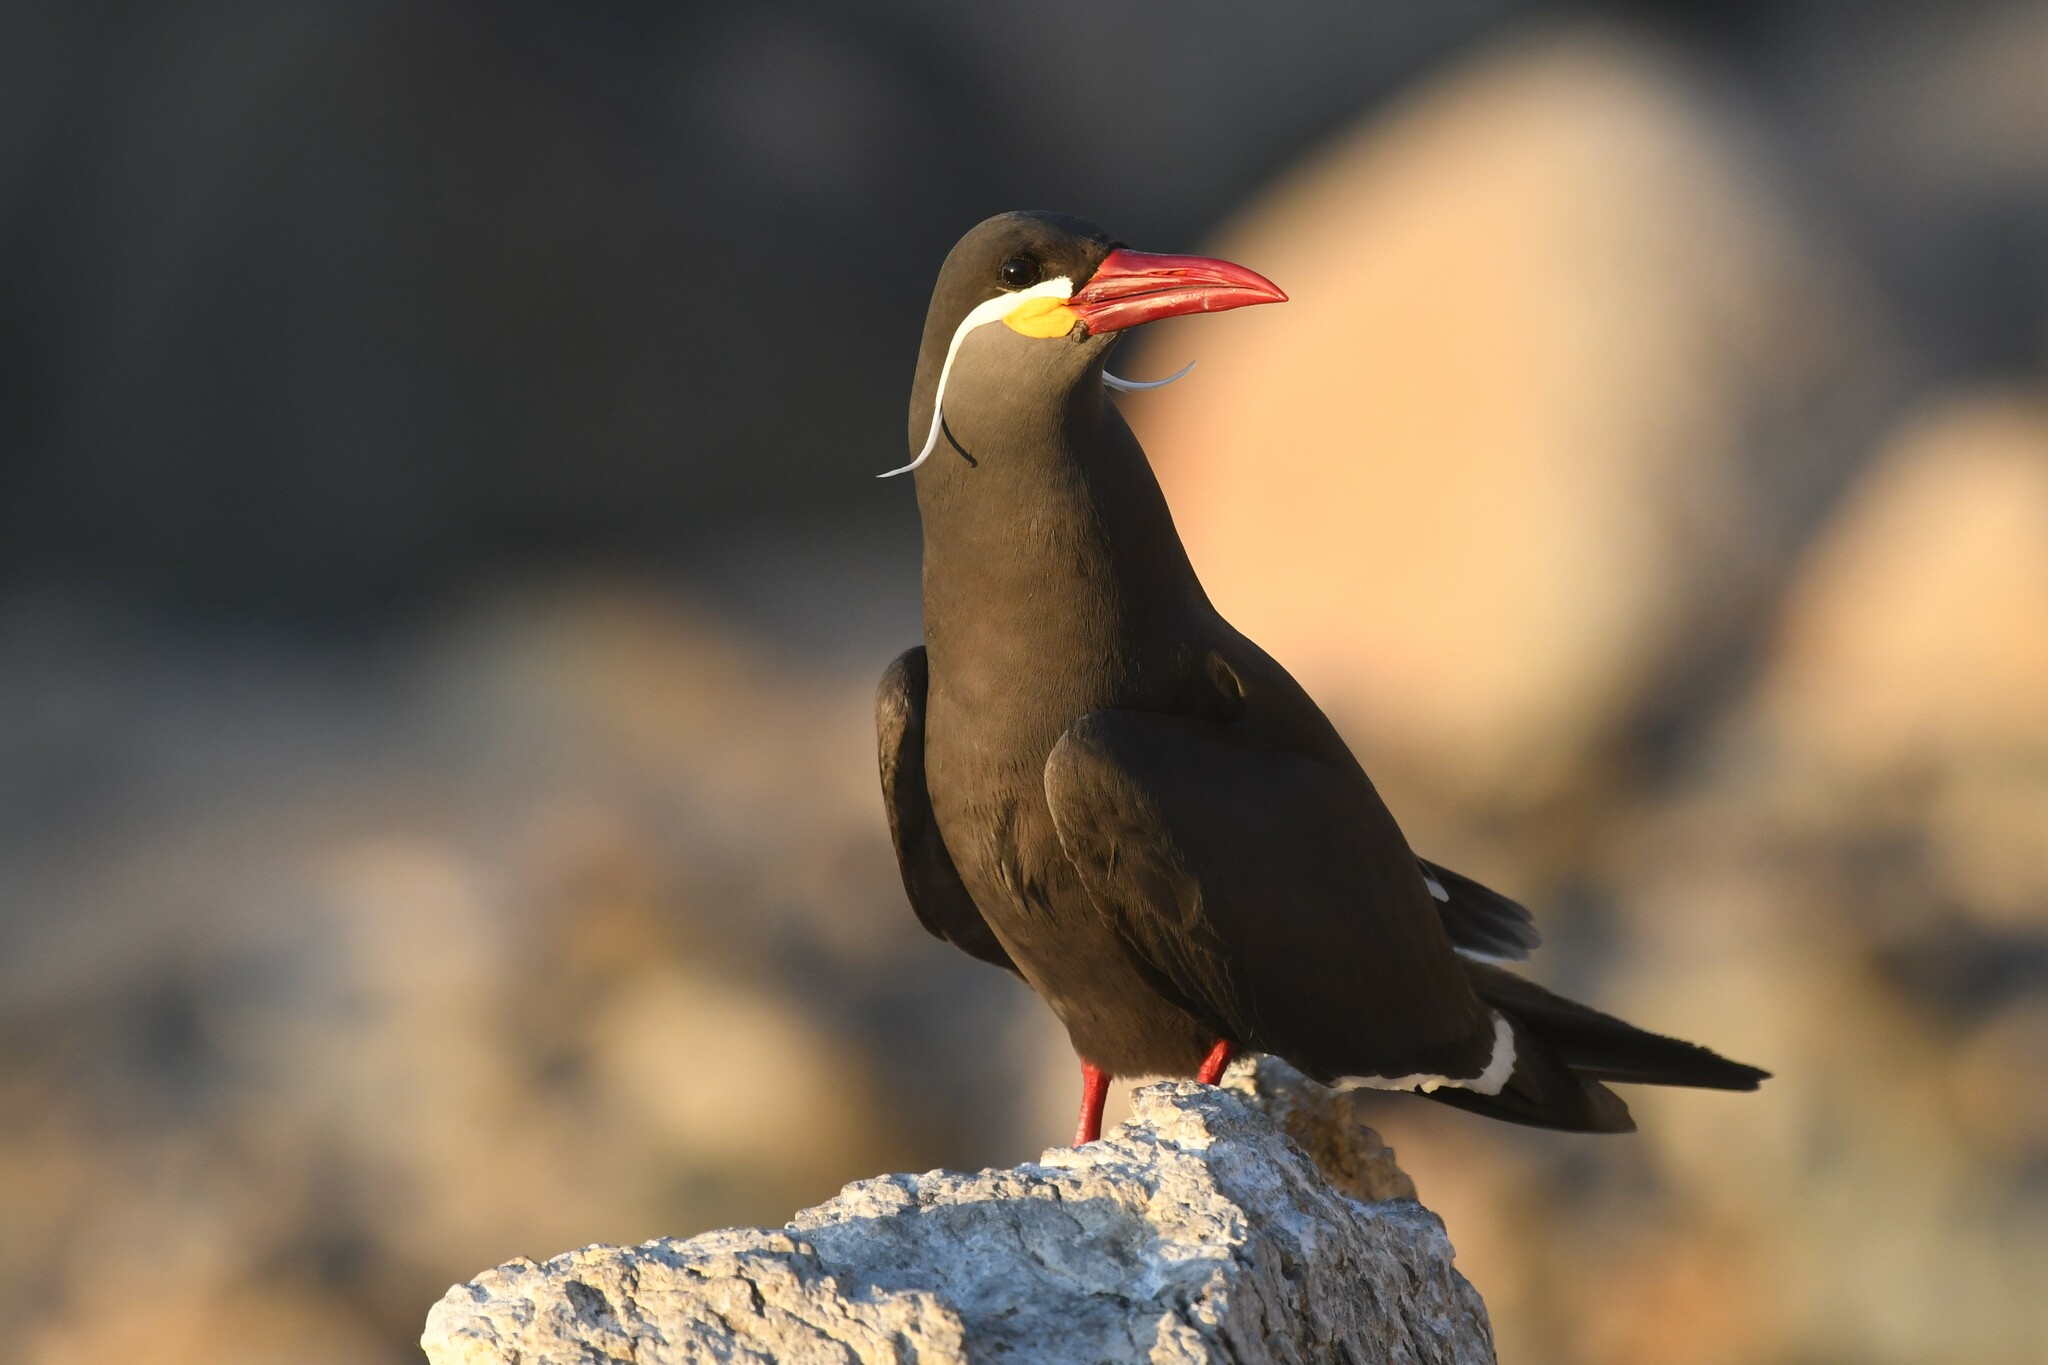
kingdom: Animalia
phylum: Chordata
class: Aves
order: Charadriiformes
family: Laridae
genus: Larosterna
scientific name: Larosterna inca
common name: Inca tern
